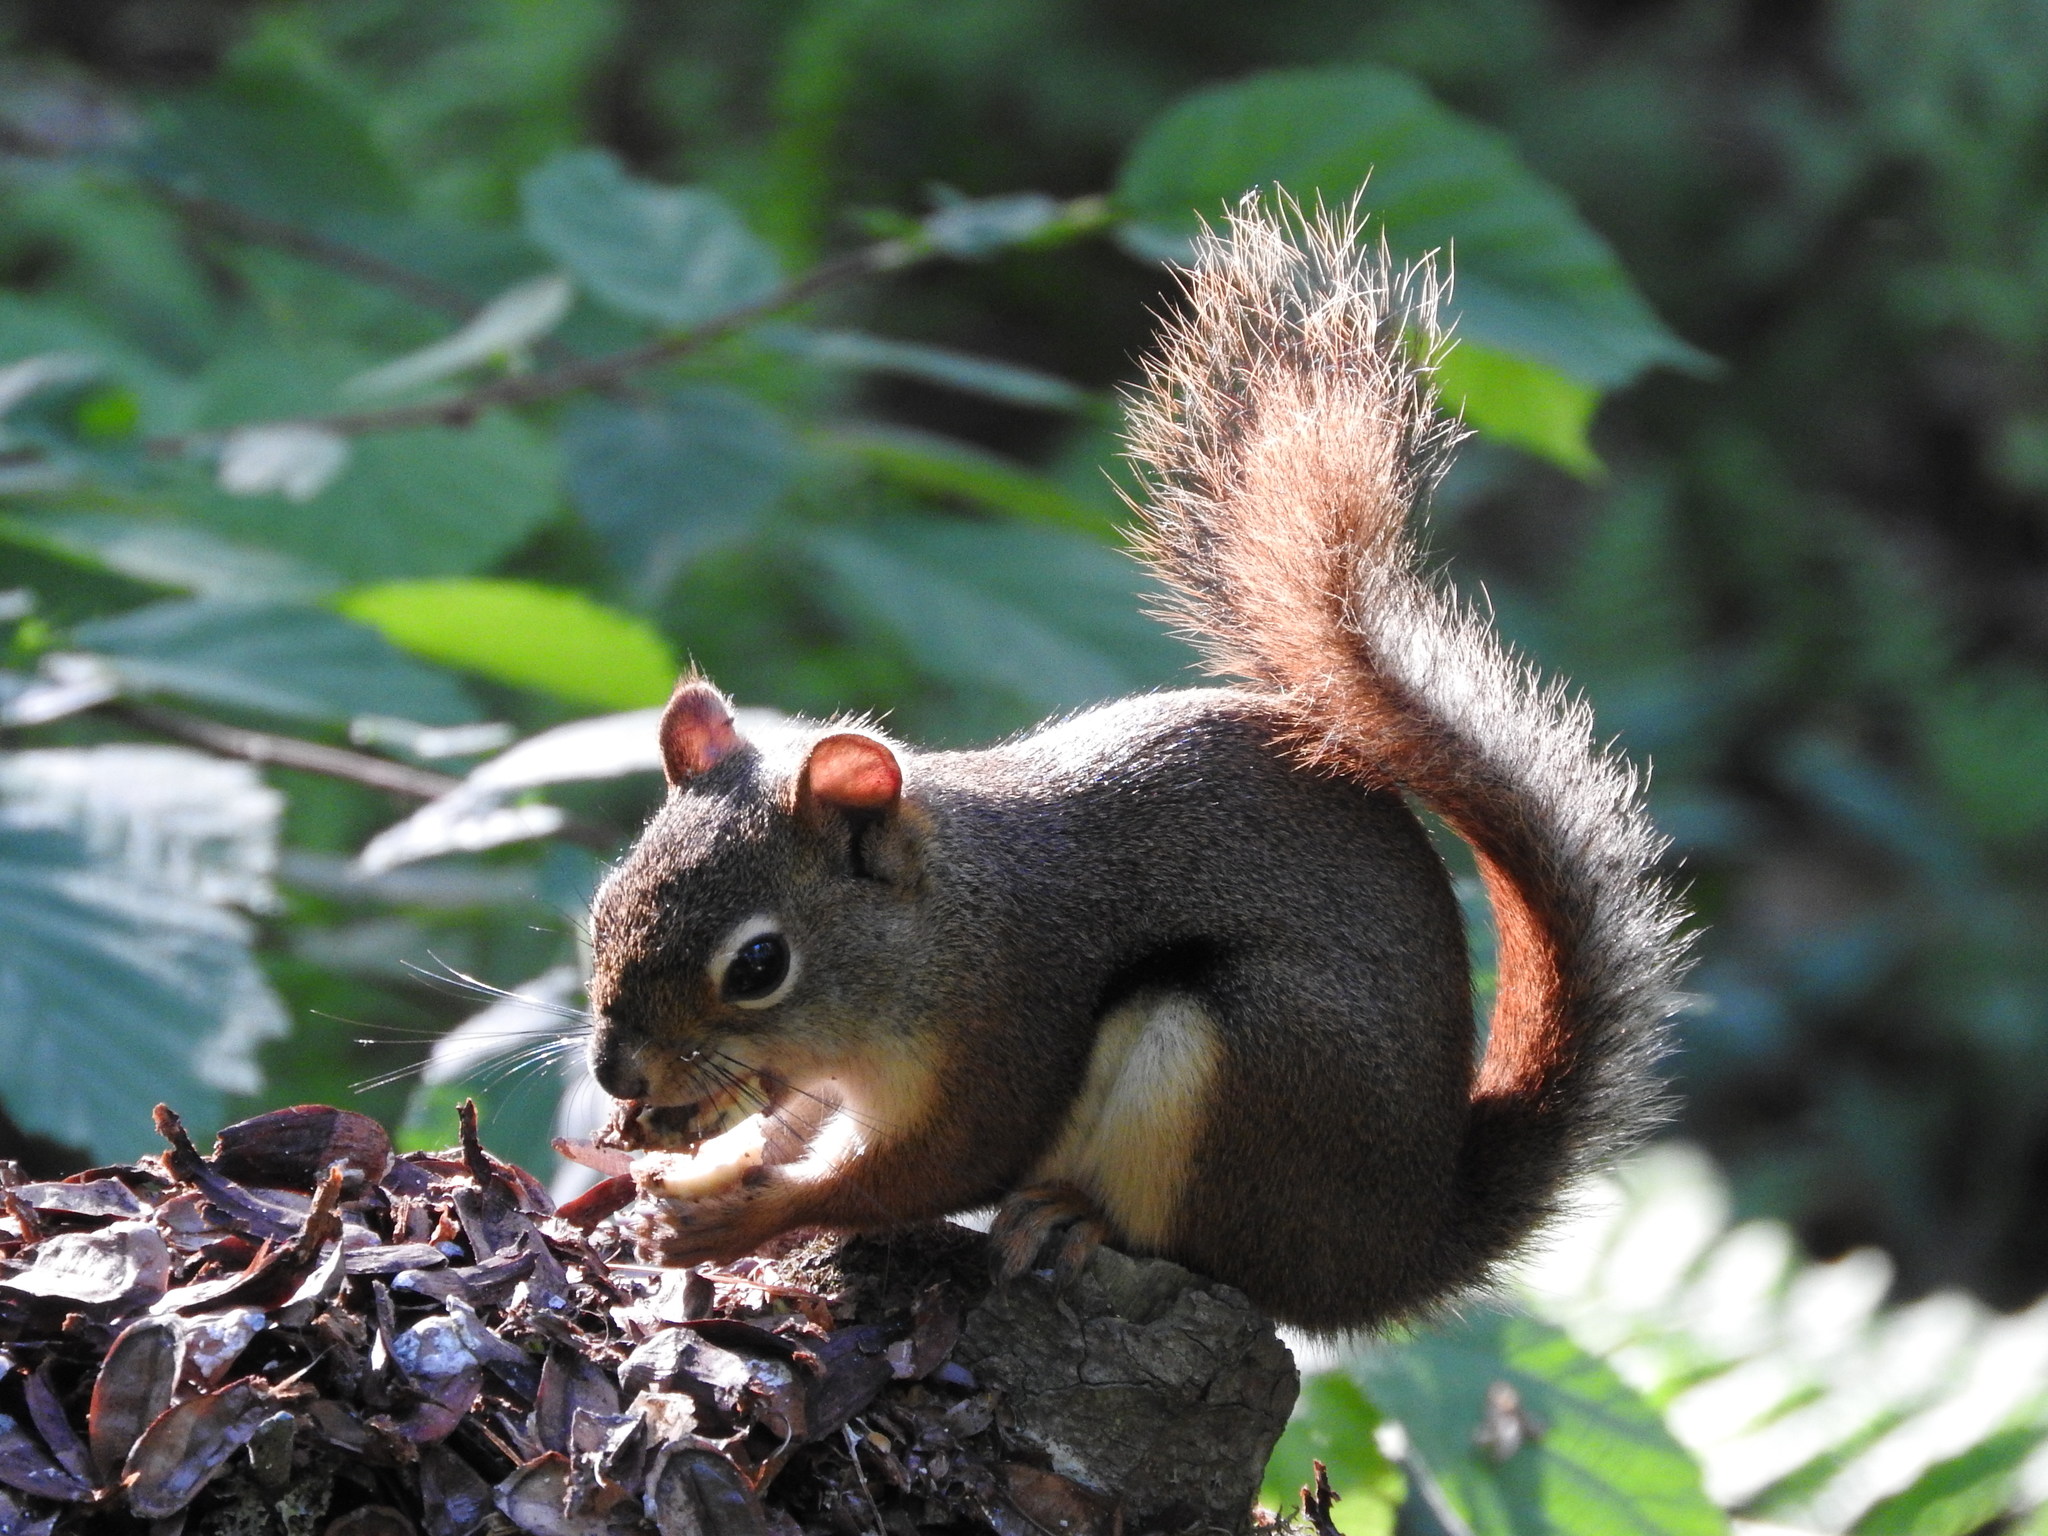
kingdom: Animalia
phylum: Chordata
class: Mammalia
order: Rodentia
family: Sciuridae
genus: Tamiasciurus
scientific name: Tamiasciurus hudsonicus
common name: Red squirrel
